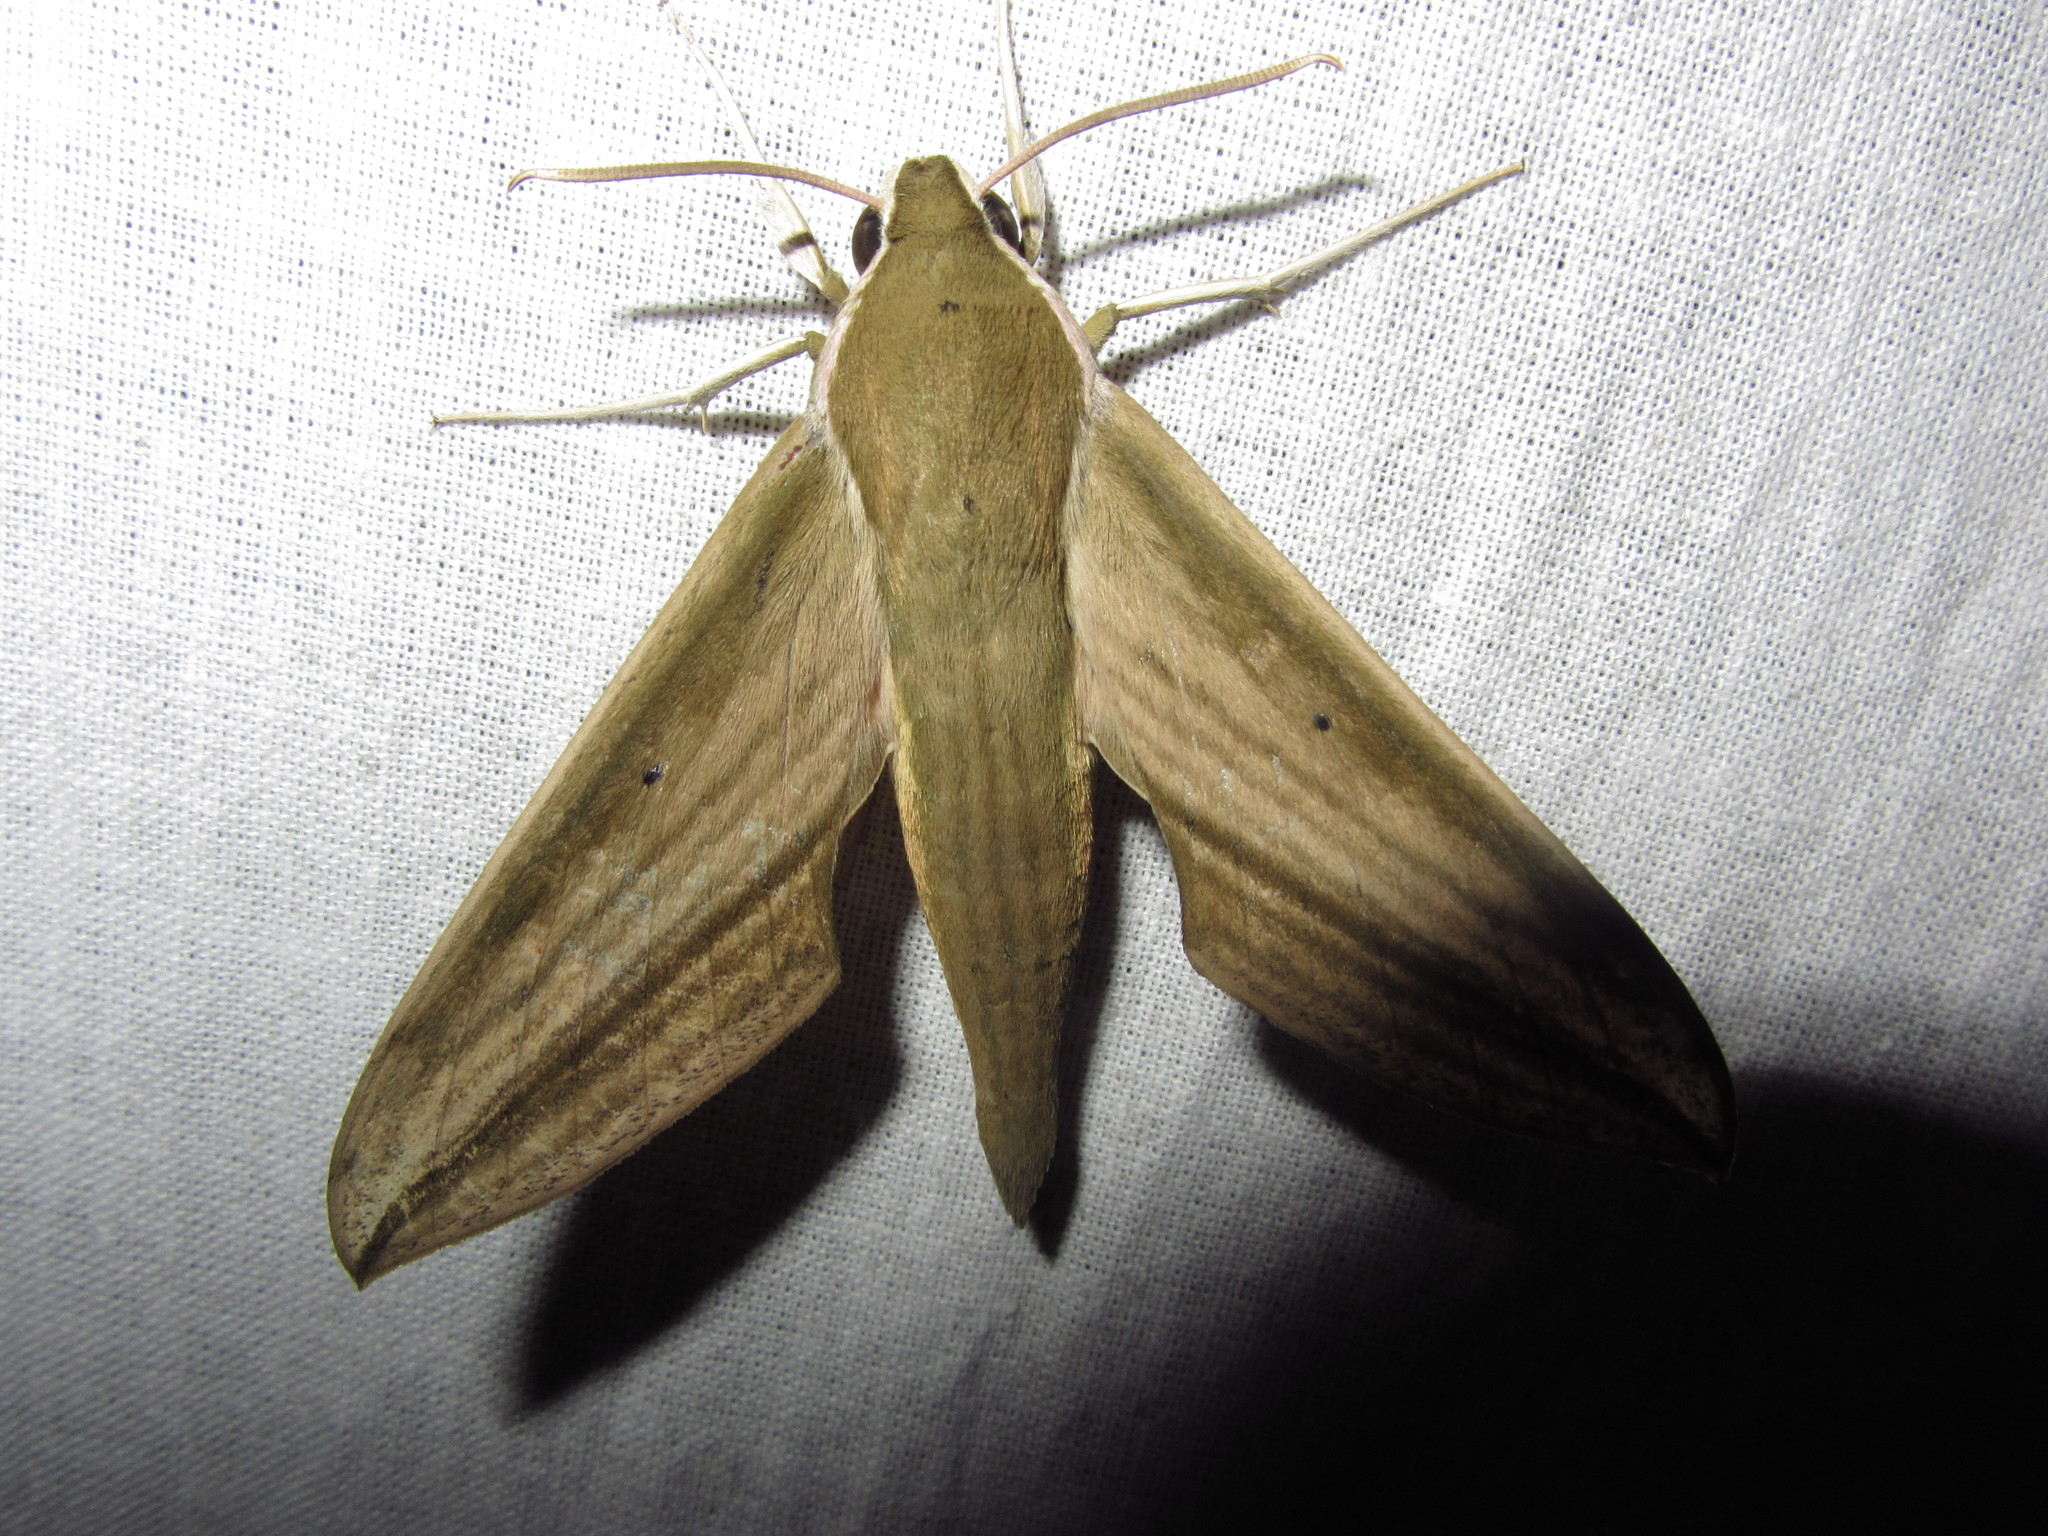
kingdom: Animalia
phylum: Arthropoda
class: Insecta
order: Lepidoptera
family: Sphingidae
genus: Cechetra
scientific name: Cechetra minor
